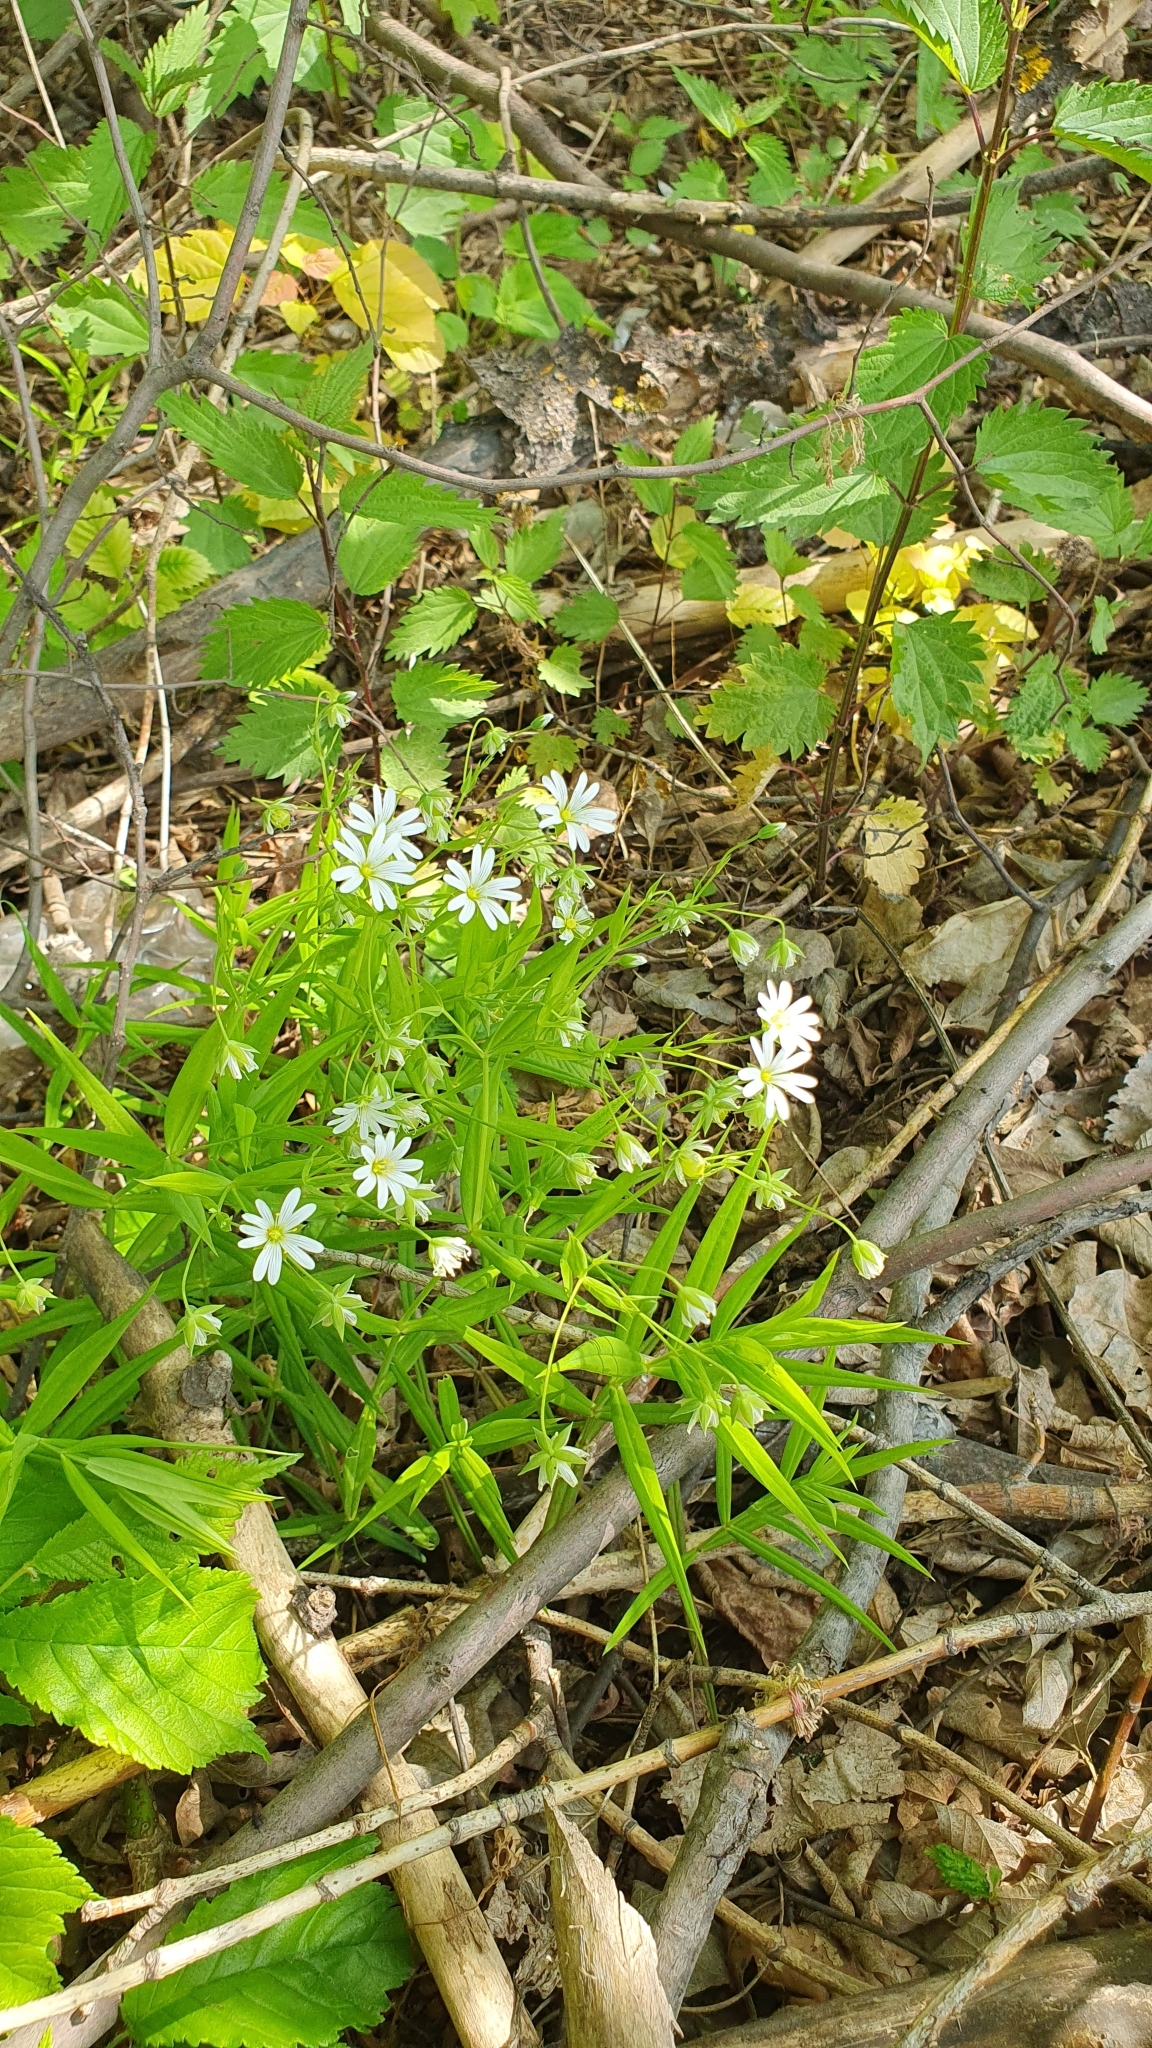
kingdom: Plantae
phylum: Tracheophyta
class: Magnoliopsida
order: Caryophyllales
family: Caryophyllaceae
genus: Rabelera
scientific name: Rabelera holostea
